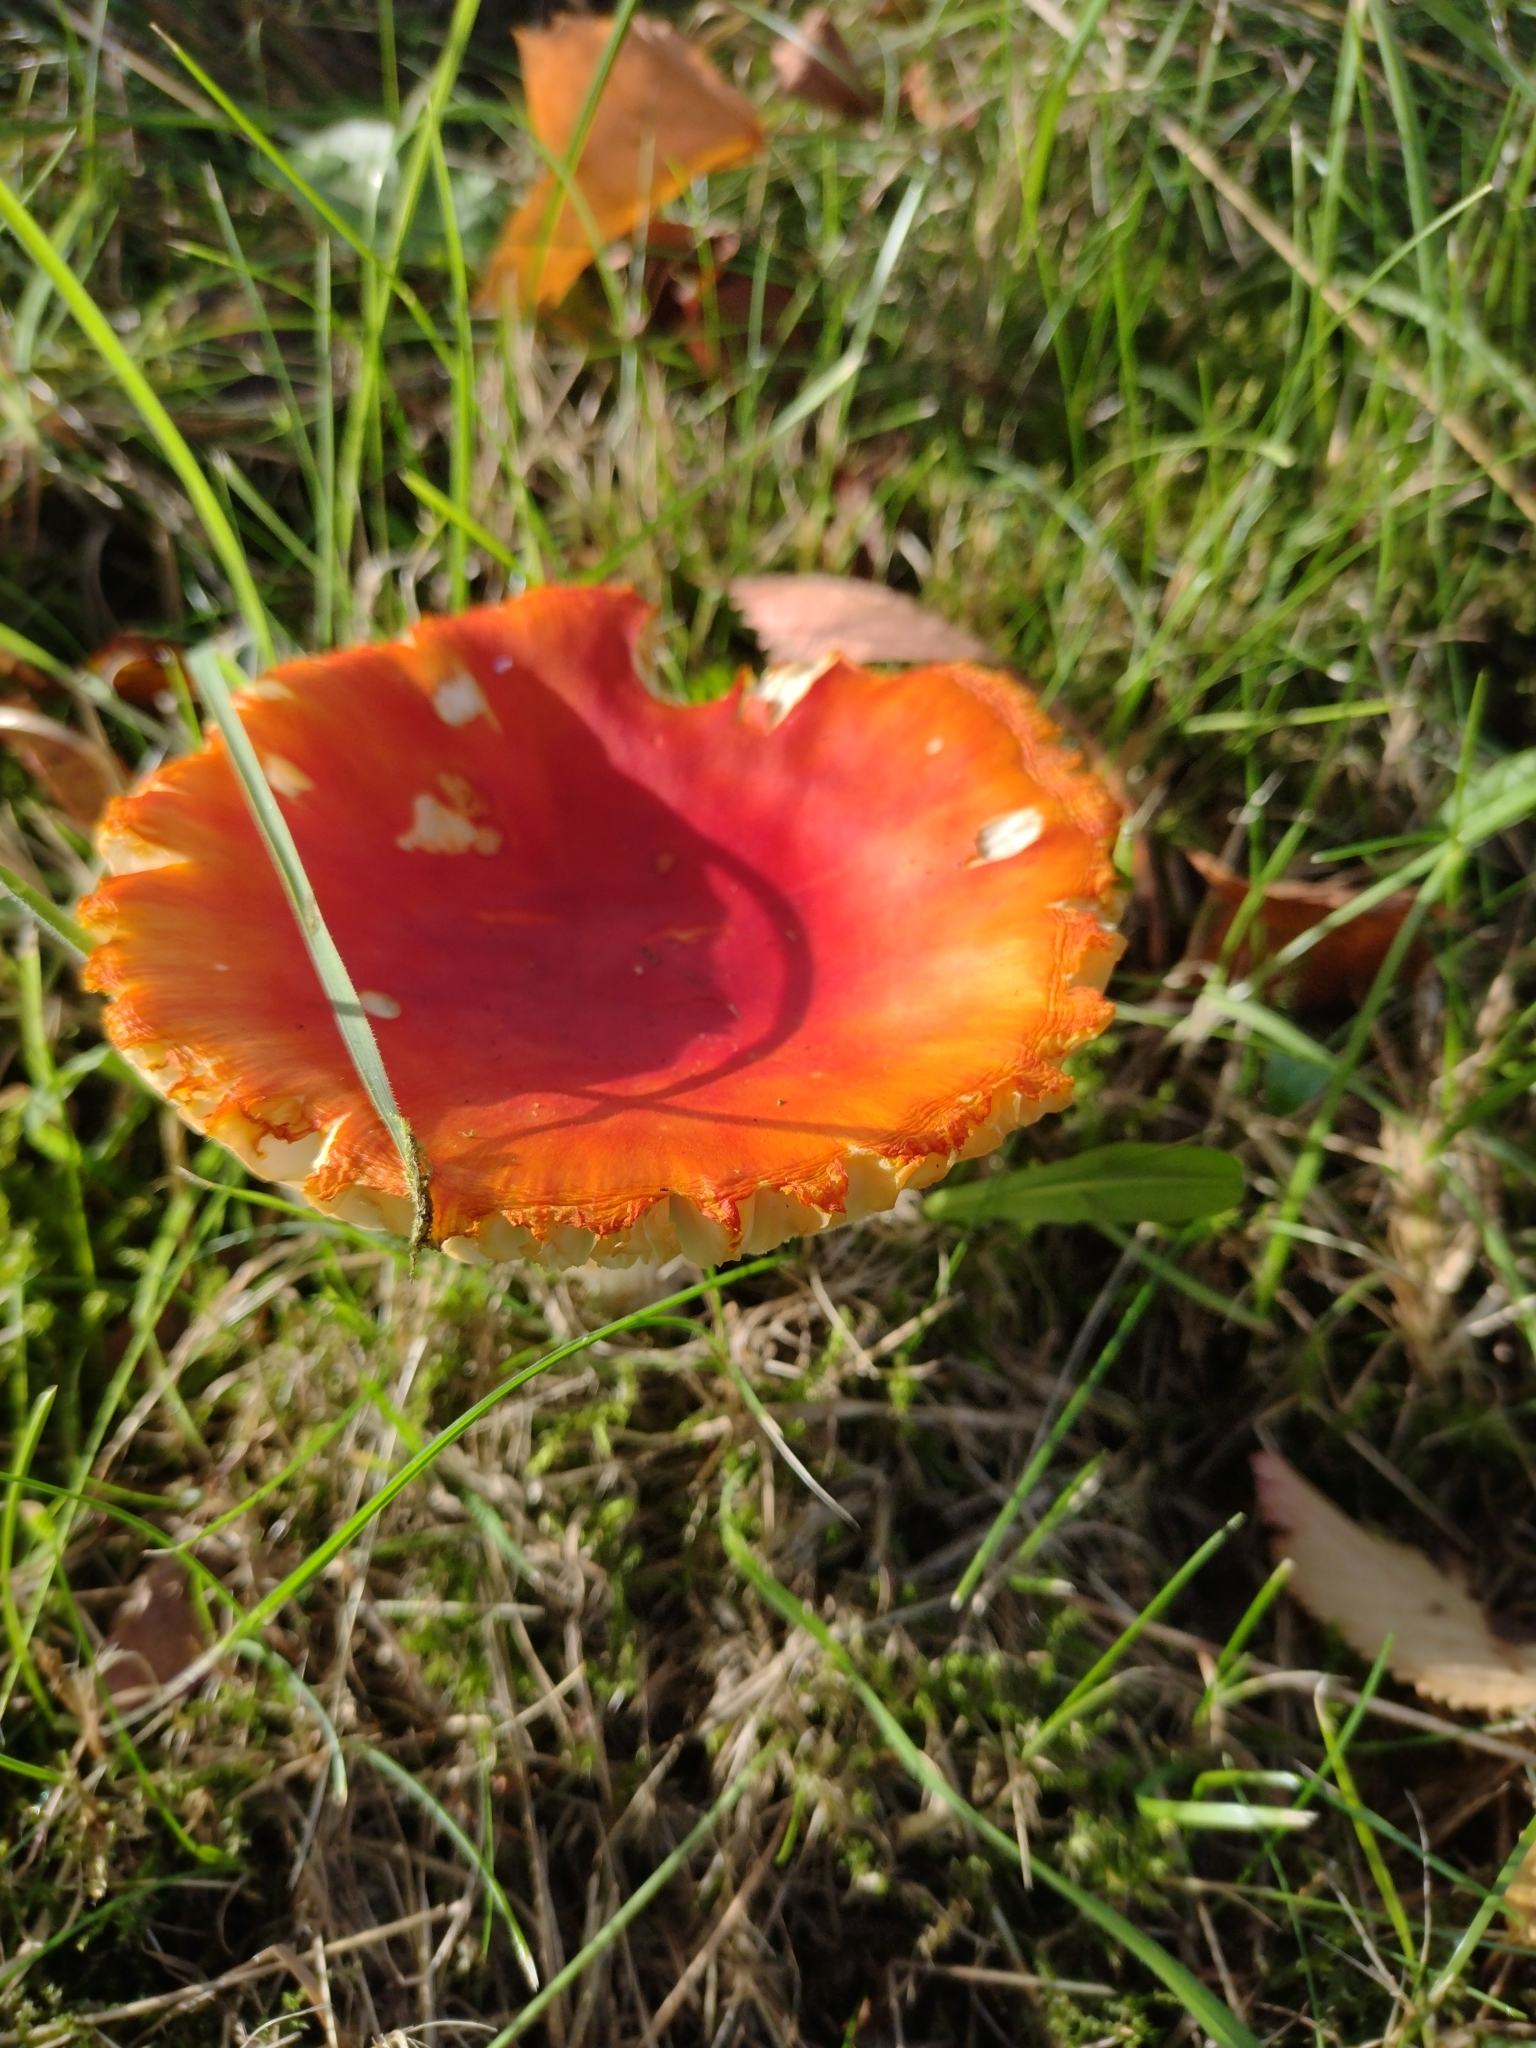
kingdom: Fungi
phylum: Basidiomycota
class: Agaricomycetes
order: Agaricales
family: Amanitaceae
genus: Amanita
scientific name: Amanita muscaria
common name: Fly agaric
